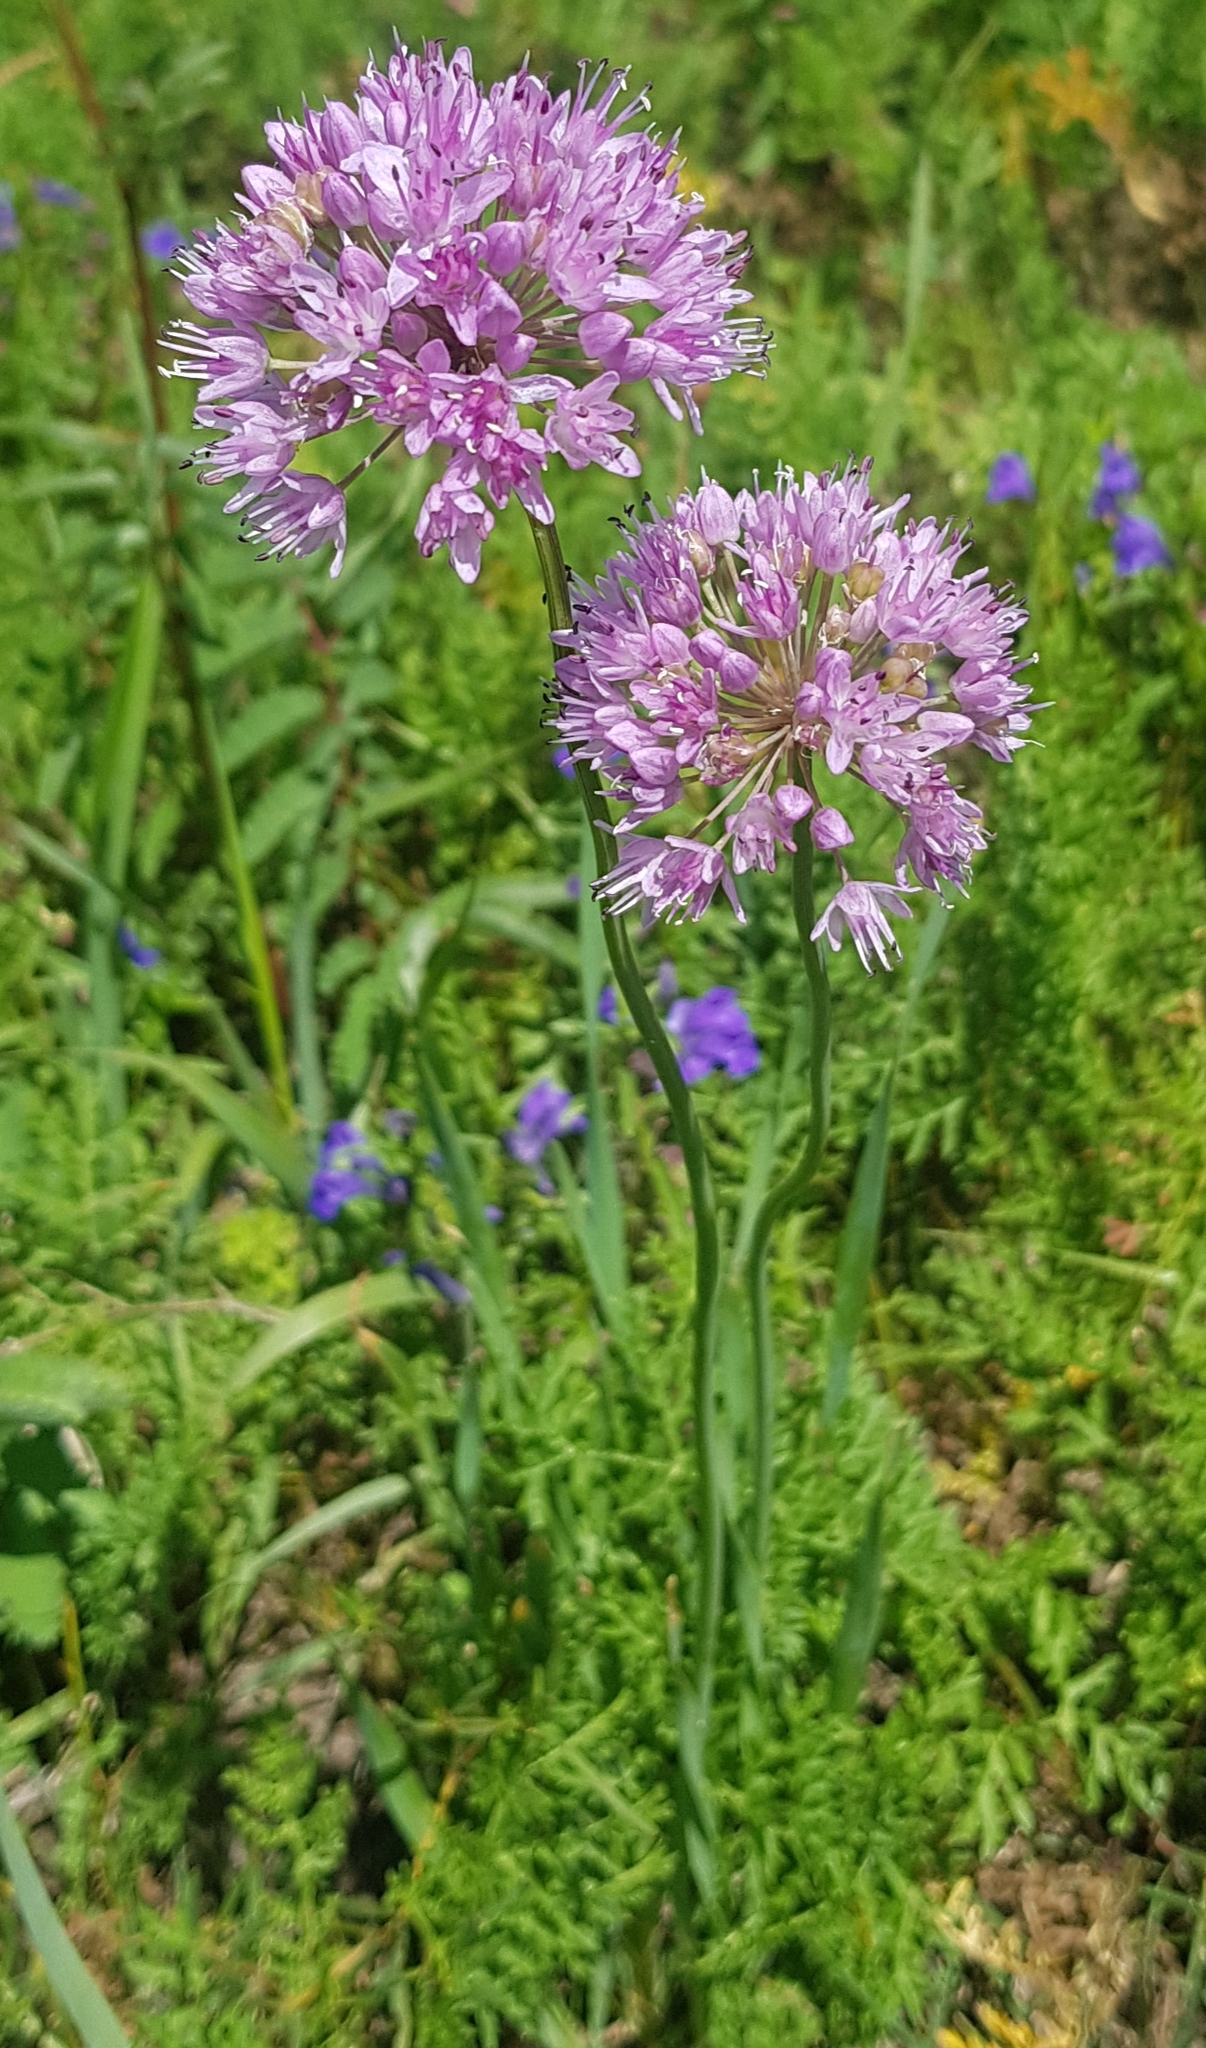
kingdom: Plantae
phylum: Tracheophyta
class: Liliopsida
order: Asparagales
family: Amaryllidaceae
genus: Allium
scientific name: Allium senescens
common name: German garlic
